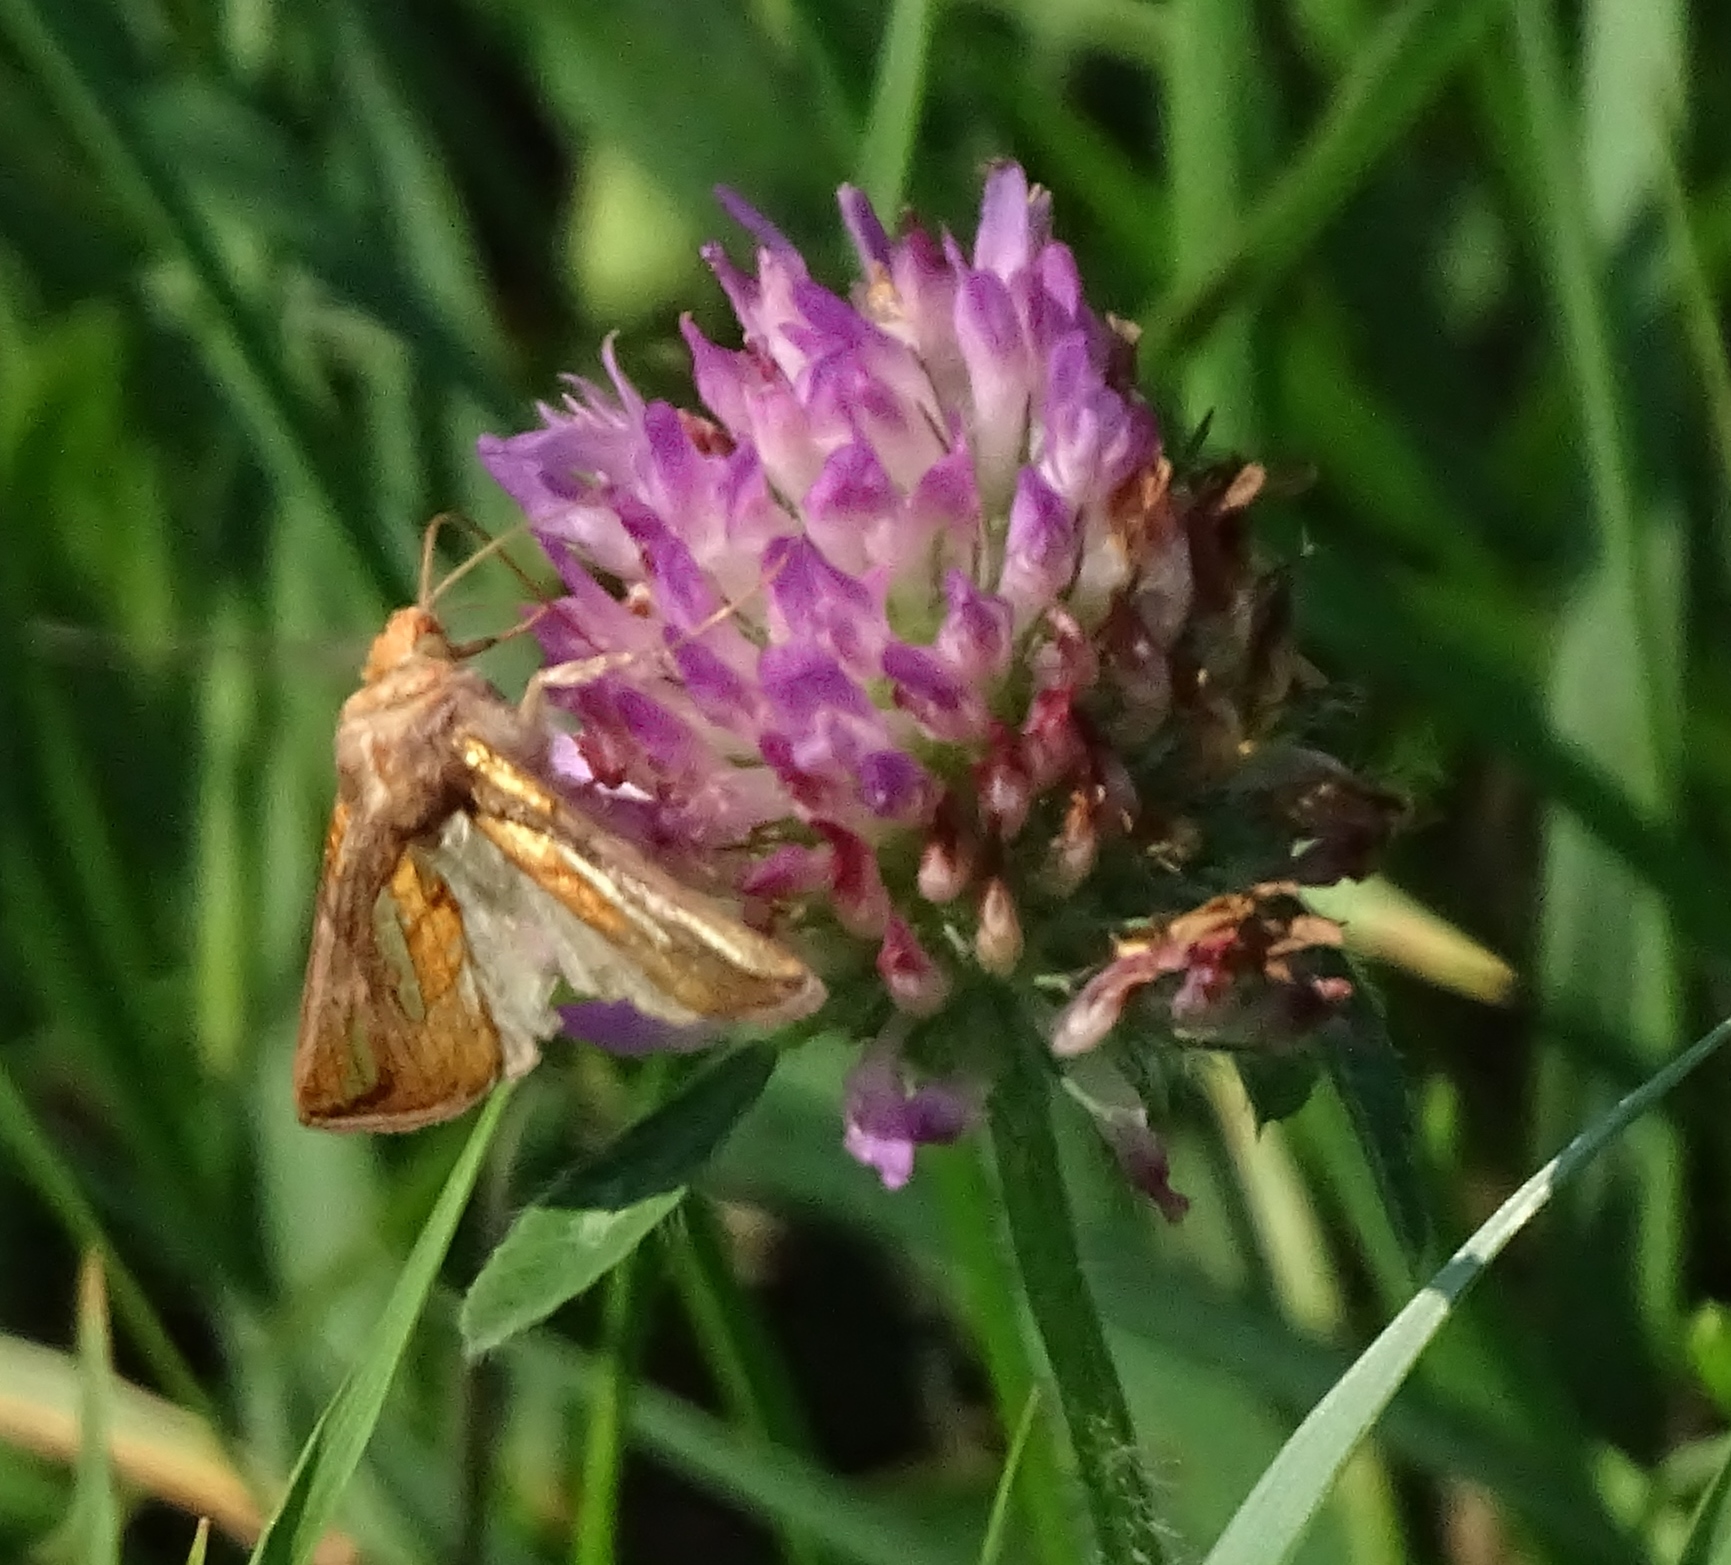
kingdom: Animalia
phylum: Arthropoda
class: Insecta
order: Lepidoptera
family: Noctuidae
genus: Plusia
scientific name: Plusia contexta
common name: Connected looper moth
